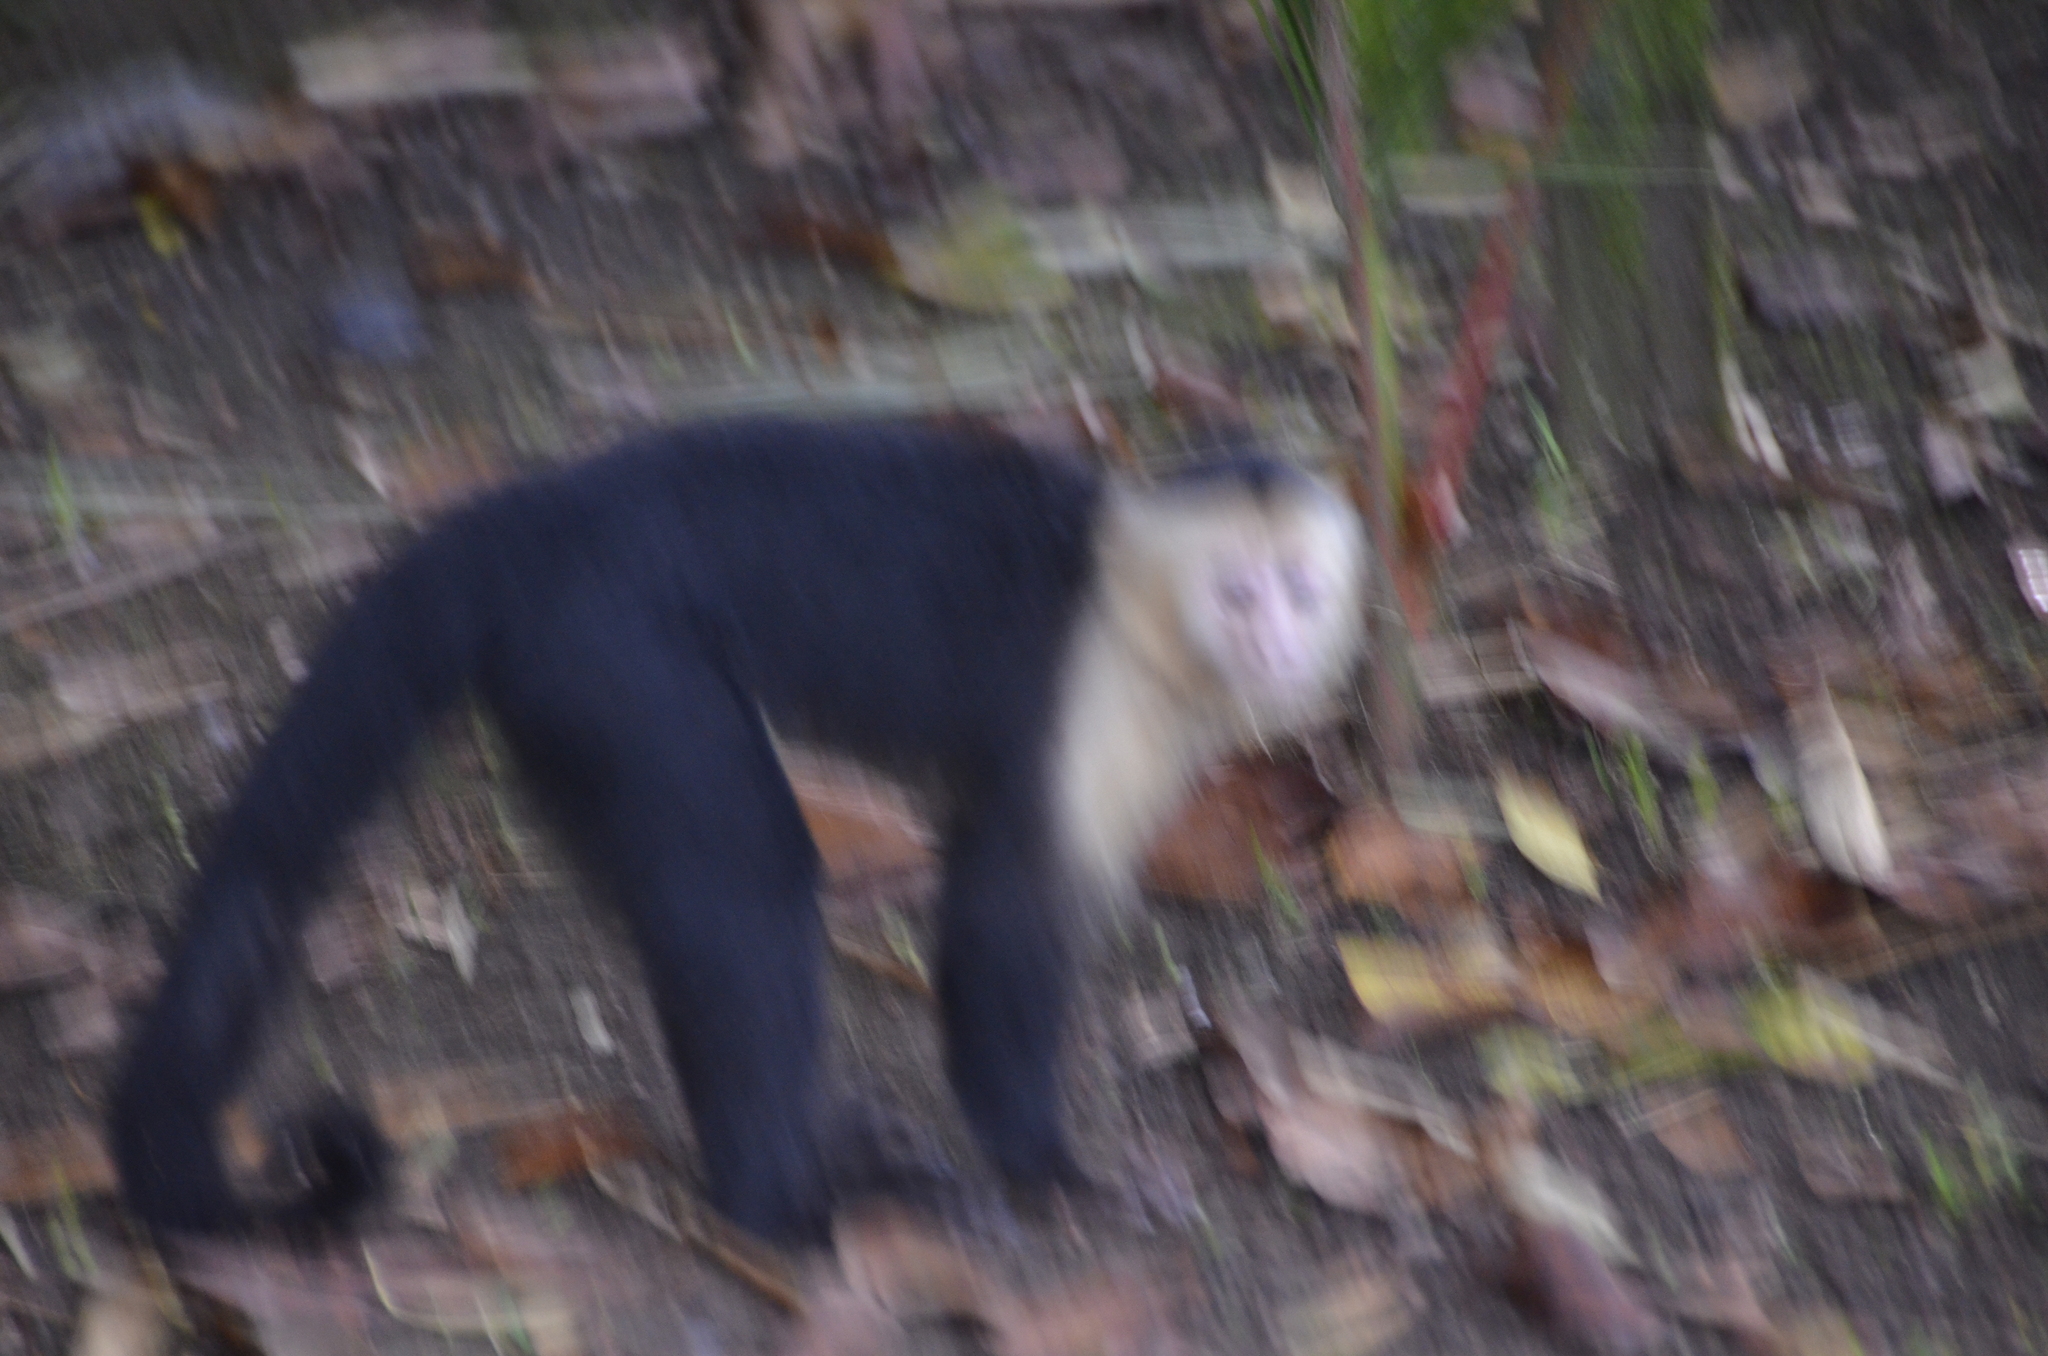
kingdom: Animalia
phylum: Chordata
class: Mammalia
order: Primates
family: Cebidae
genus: Cebus
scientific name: Cebus imitator
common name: Panamanian white-faced capuchin
